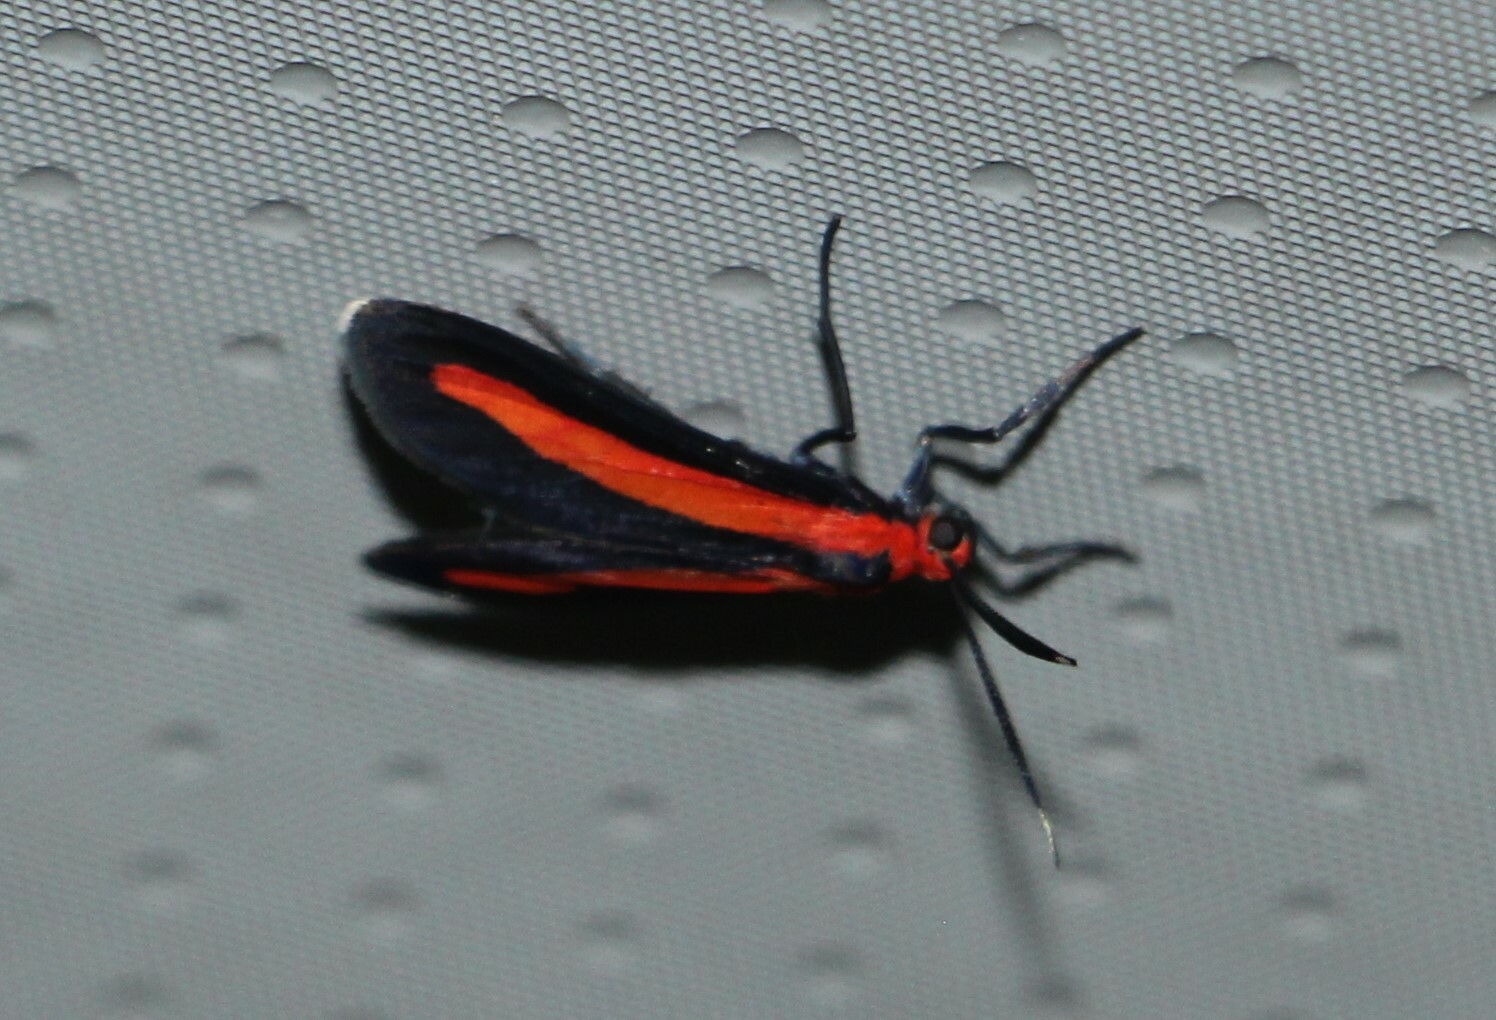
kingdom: Animalia
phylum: Arthropoda
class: Insecta
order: Lepidoptera
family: Erebidae
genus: Tipulodes
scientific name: Tipulodes rubriceps
